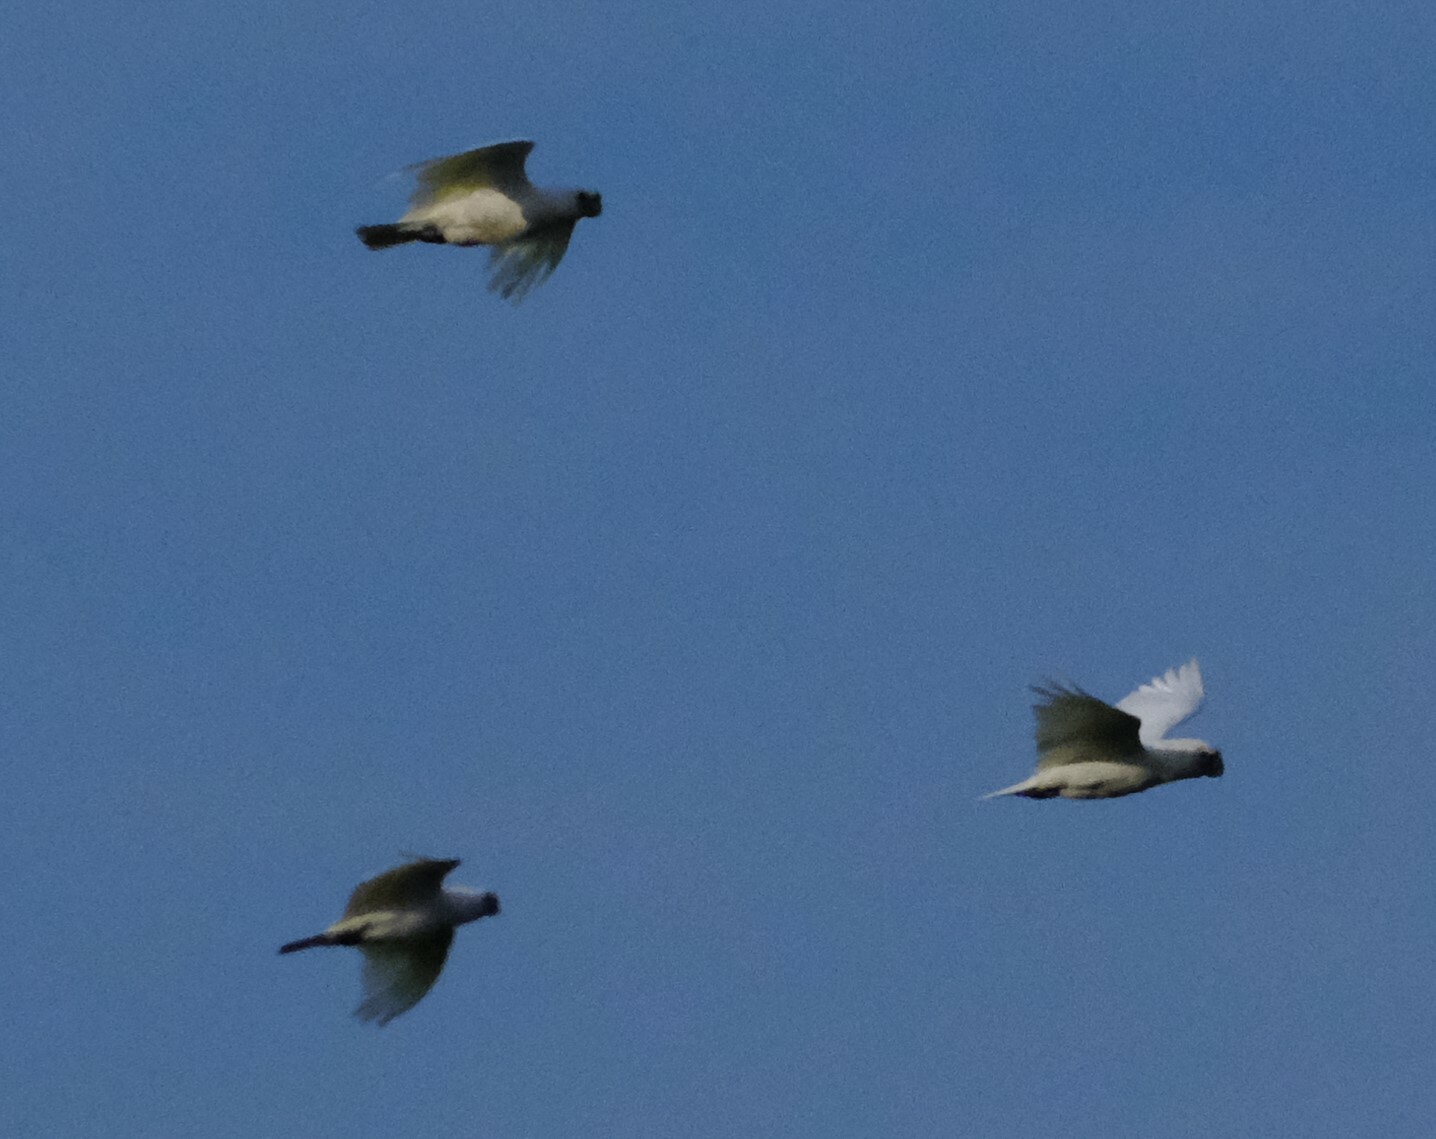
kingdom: Animalia
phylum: Chordata
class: Aves
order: Psittaciformes
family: Psittacidae
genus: Cacatua
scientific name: Cacatua sanguinea
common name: Little corella
